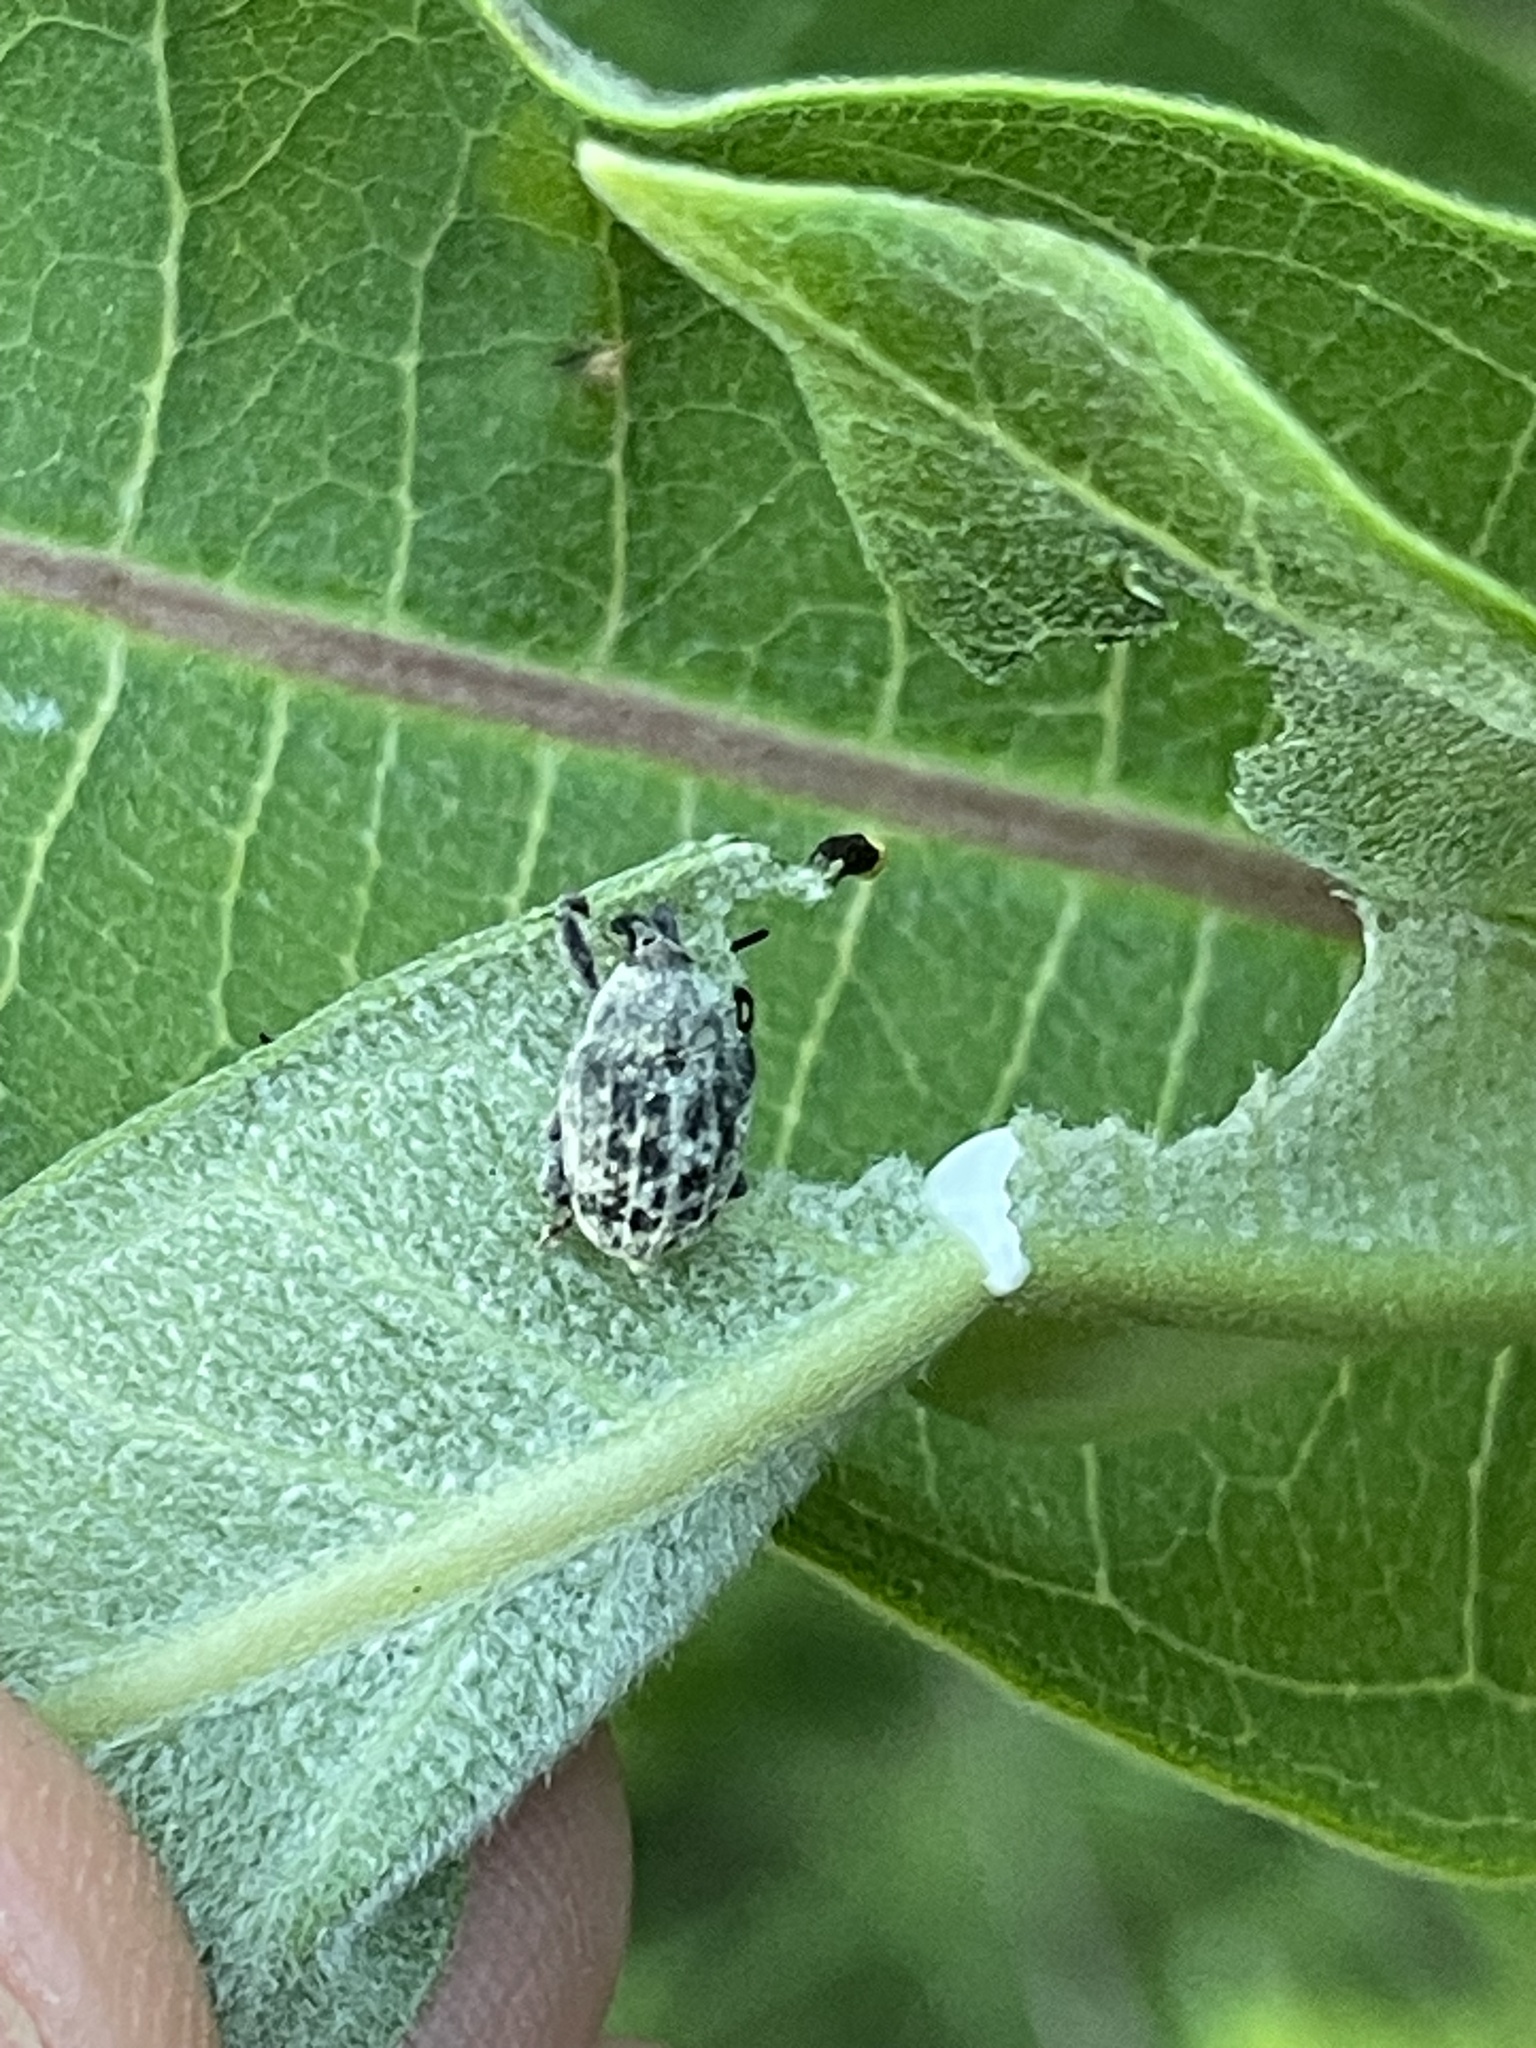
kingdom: Animalia
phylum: Arthropoda
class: Insecta
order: Coleoptera
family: Curculionidae
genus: Rhyssomatus
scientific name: Rhyssomatus lineaticollis
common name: Milkweed stem weevil
